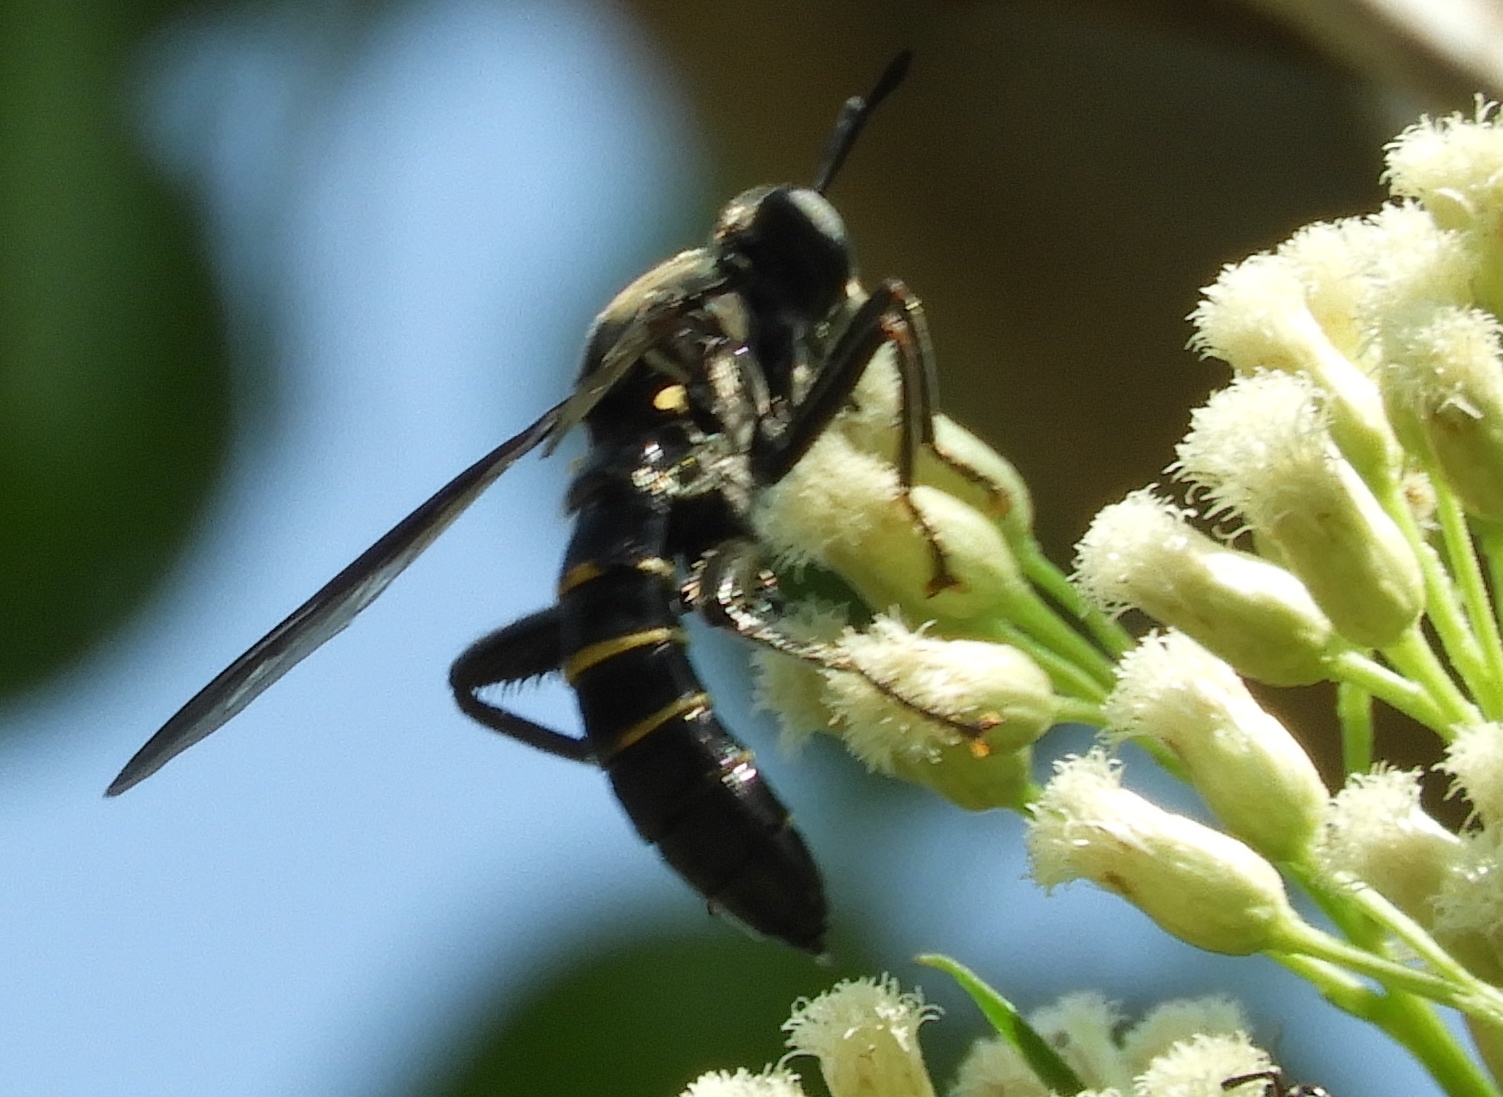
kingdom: Animalia
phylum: Arthropoda
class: Insecta
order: Diptera
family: Mydidae
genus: Mydas
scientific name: Mydas
